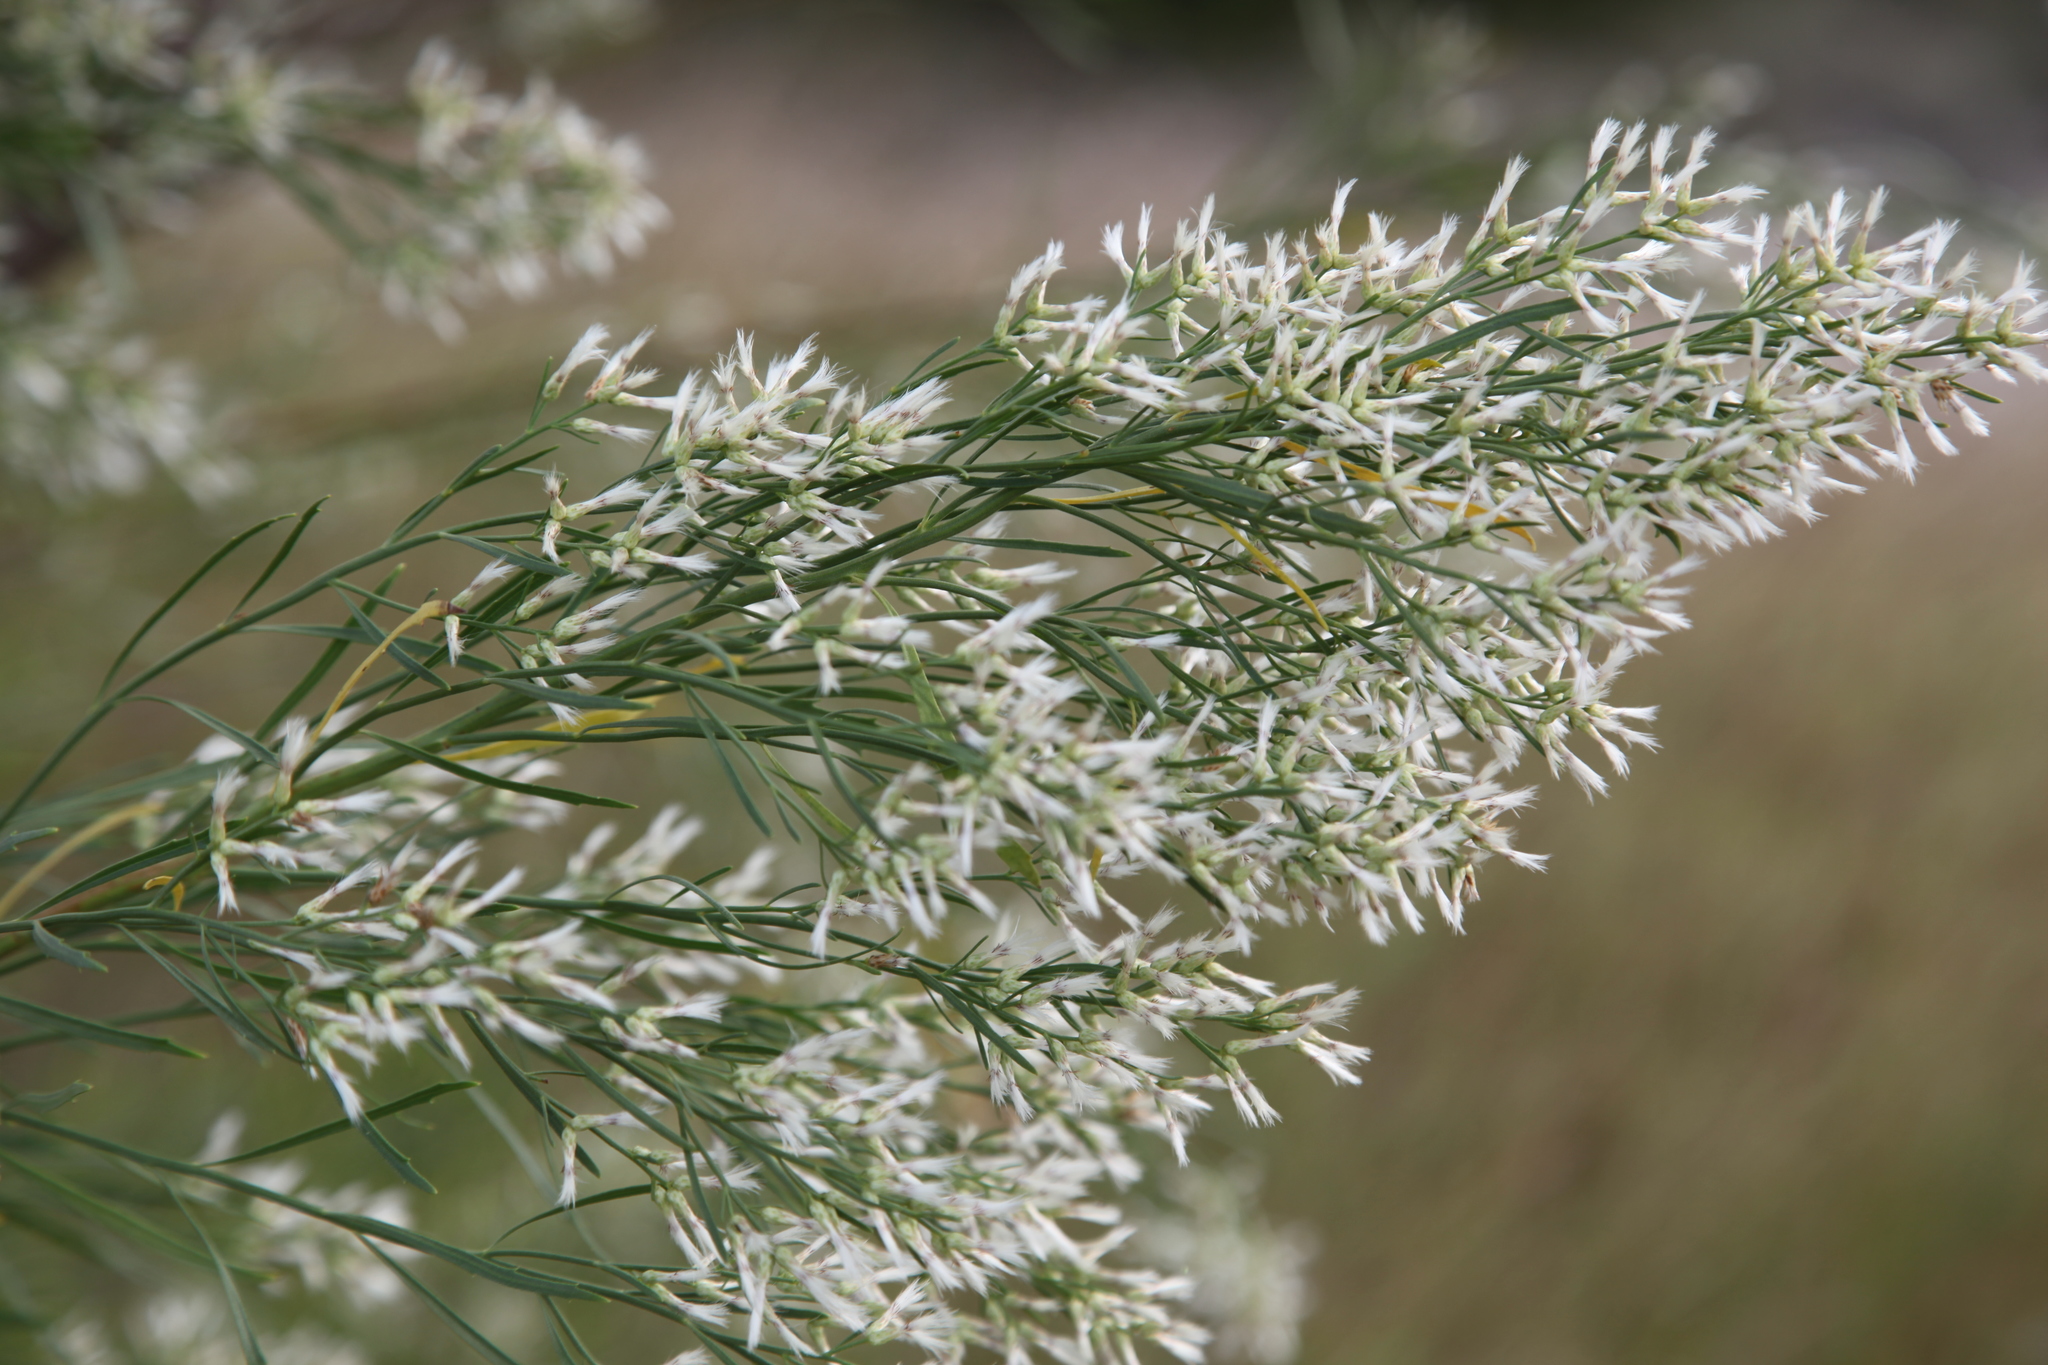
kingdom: Plantae
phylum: Tracheophyta
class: Magnoliopsida
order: Asterales
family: Asteraceae
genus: Baccharis
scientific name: Baccharis neglecta
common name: Roosevelt-weed
